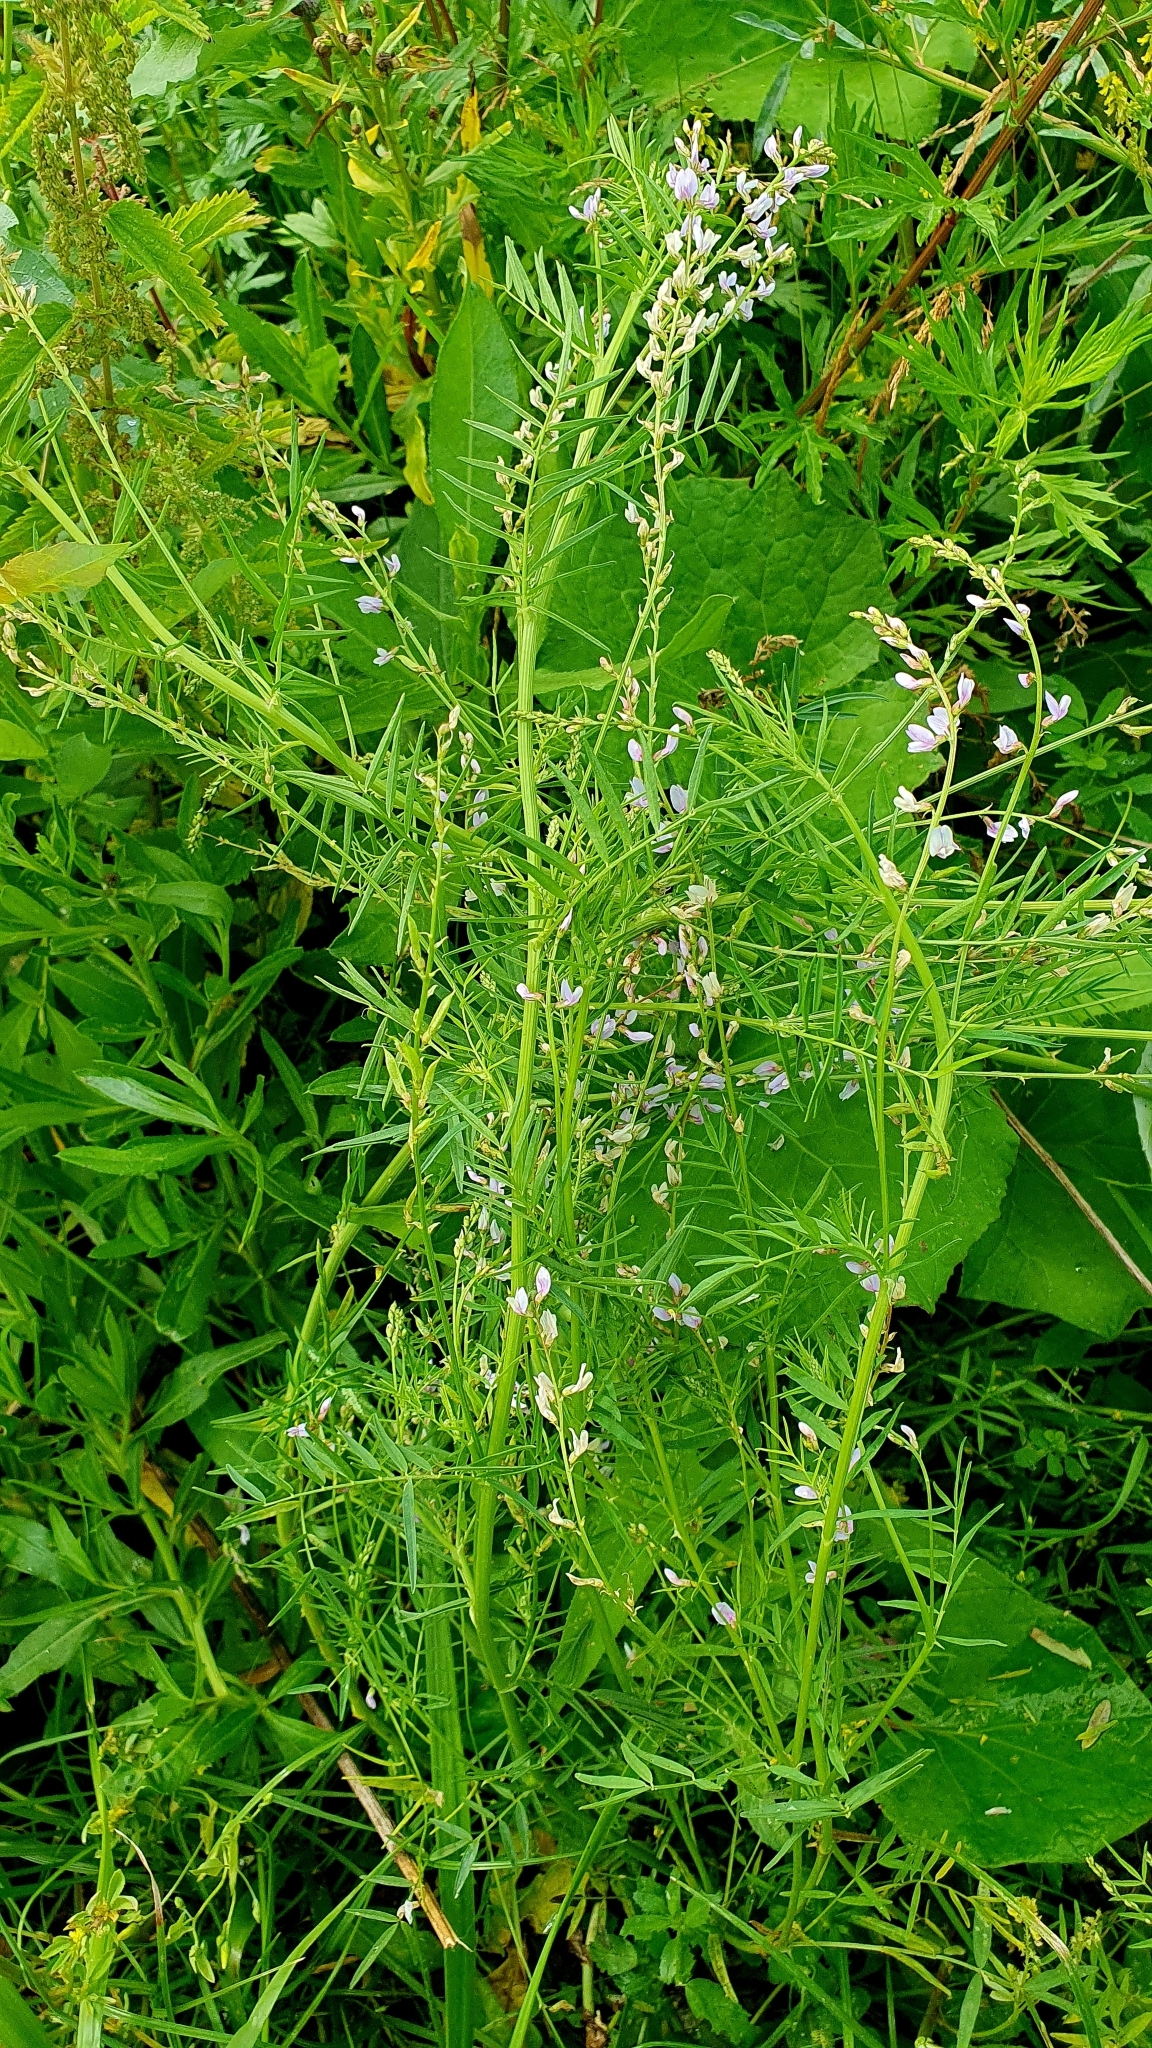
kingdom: Plantae
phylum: Tracheophyta
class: Magnoliopsida
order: Fabales
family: Fabaceae
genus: Astragalus
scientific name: Astragalus sulcatus
